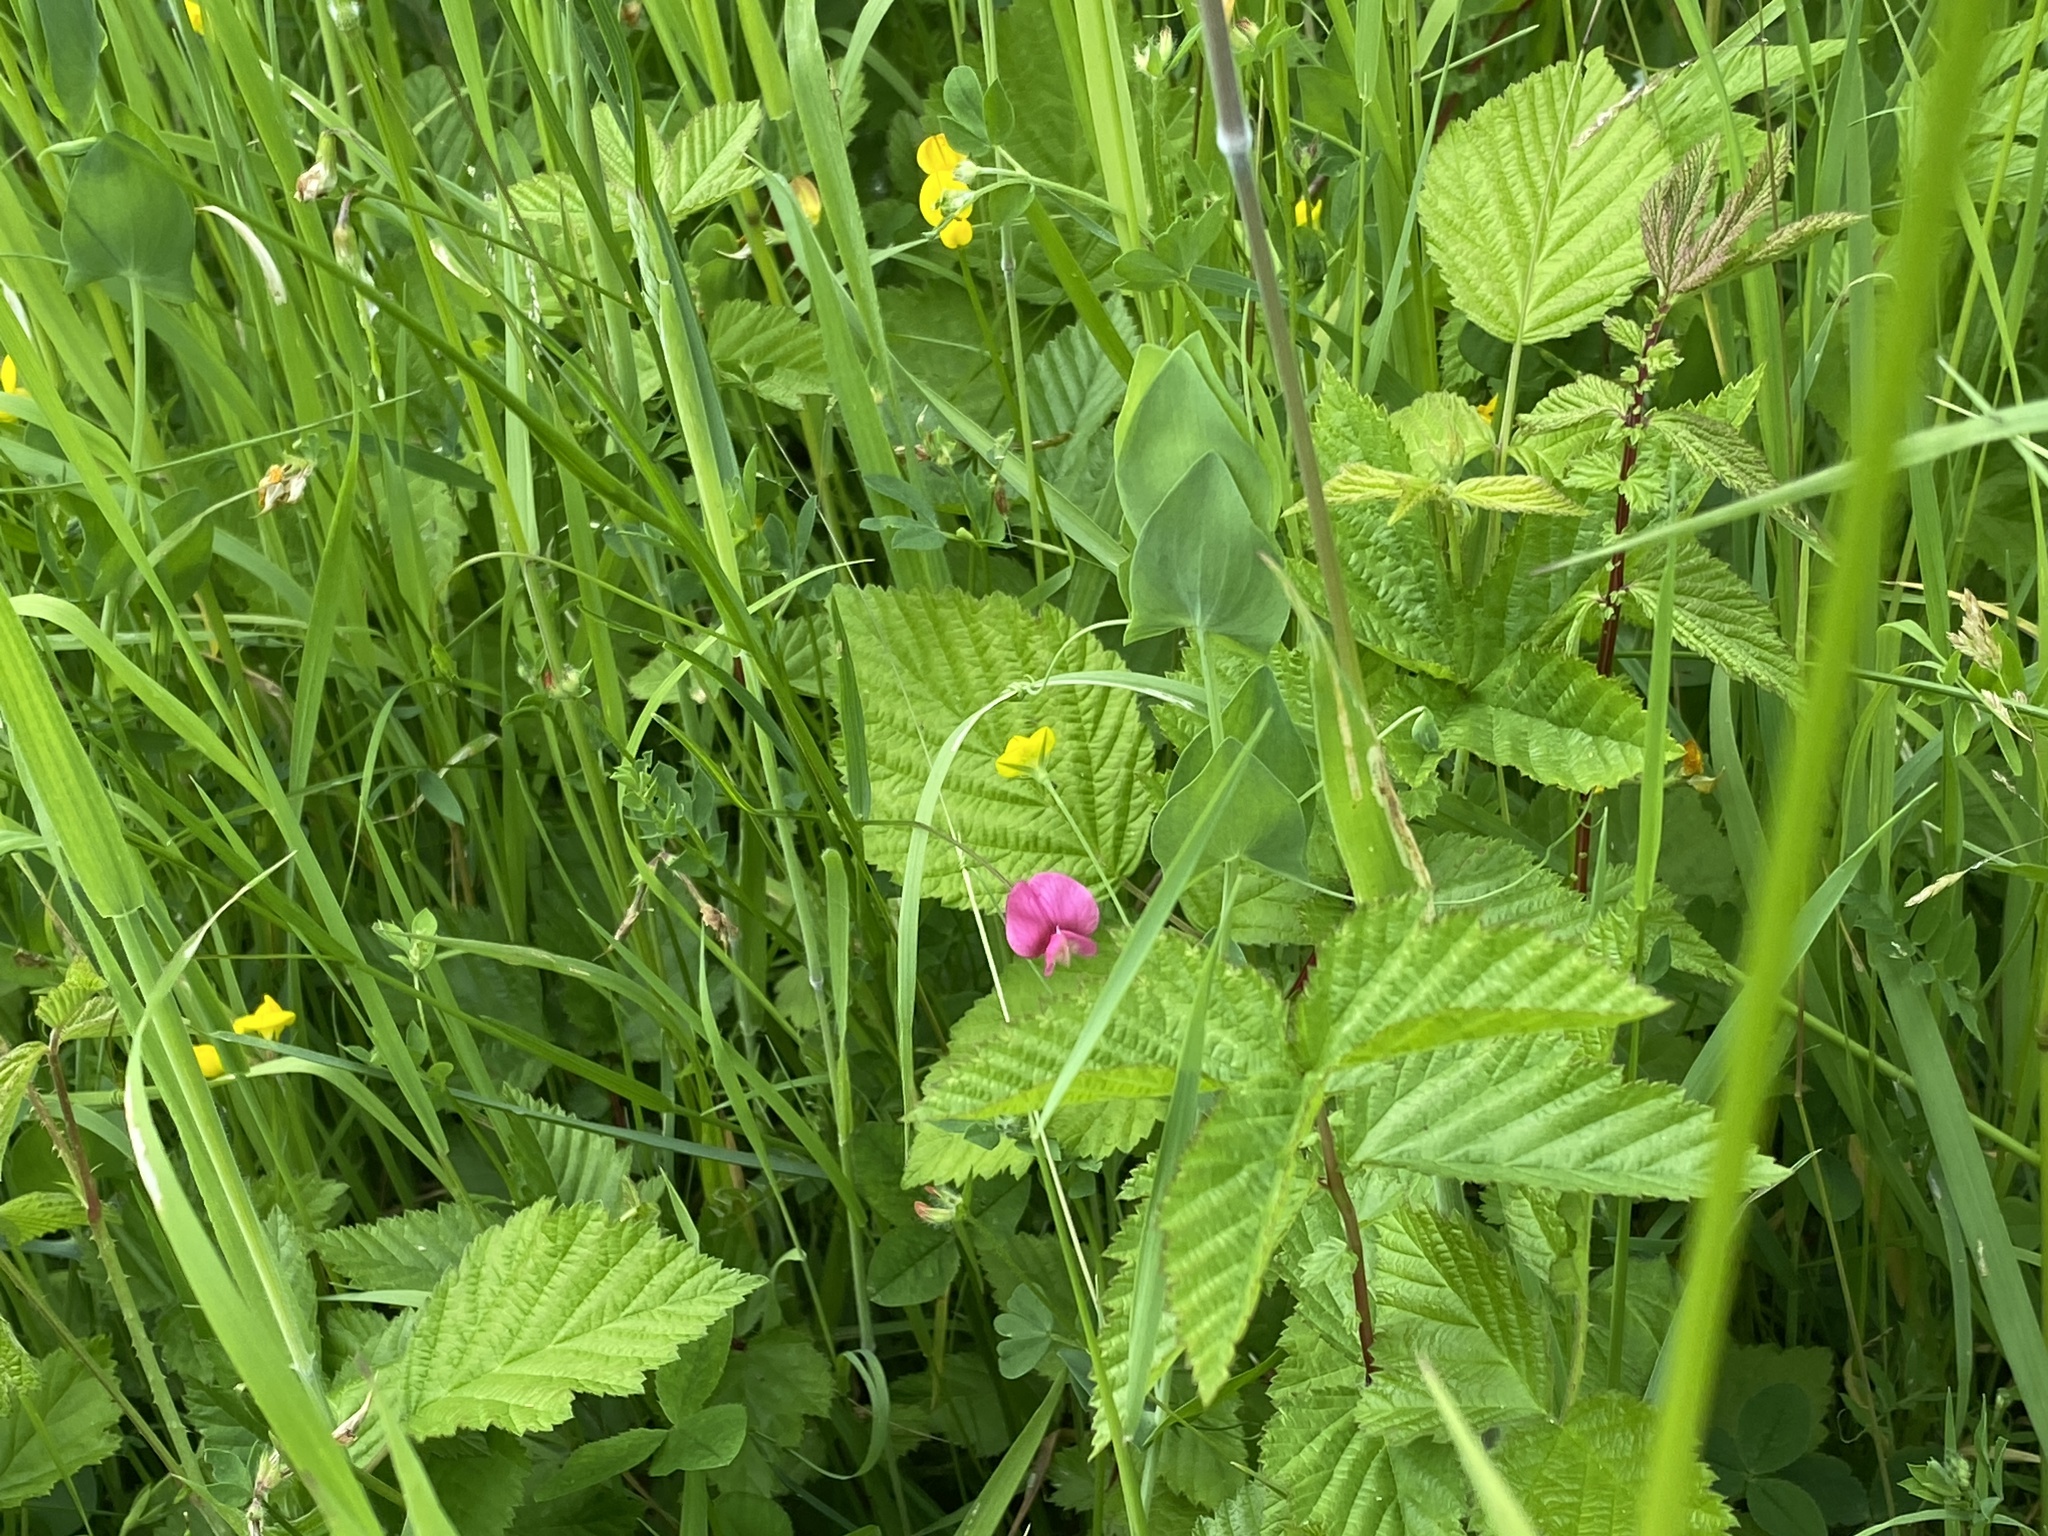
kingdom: Plantae
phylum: Tracheophyta
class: Magnoliopsida
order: Fabales
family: Fabaceae
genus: Lathyrus
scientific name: Lathyrus nissolia
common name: Grass vetchling
